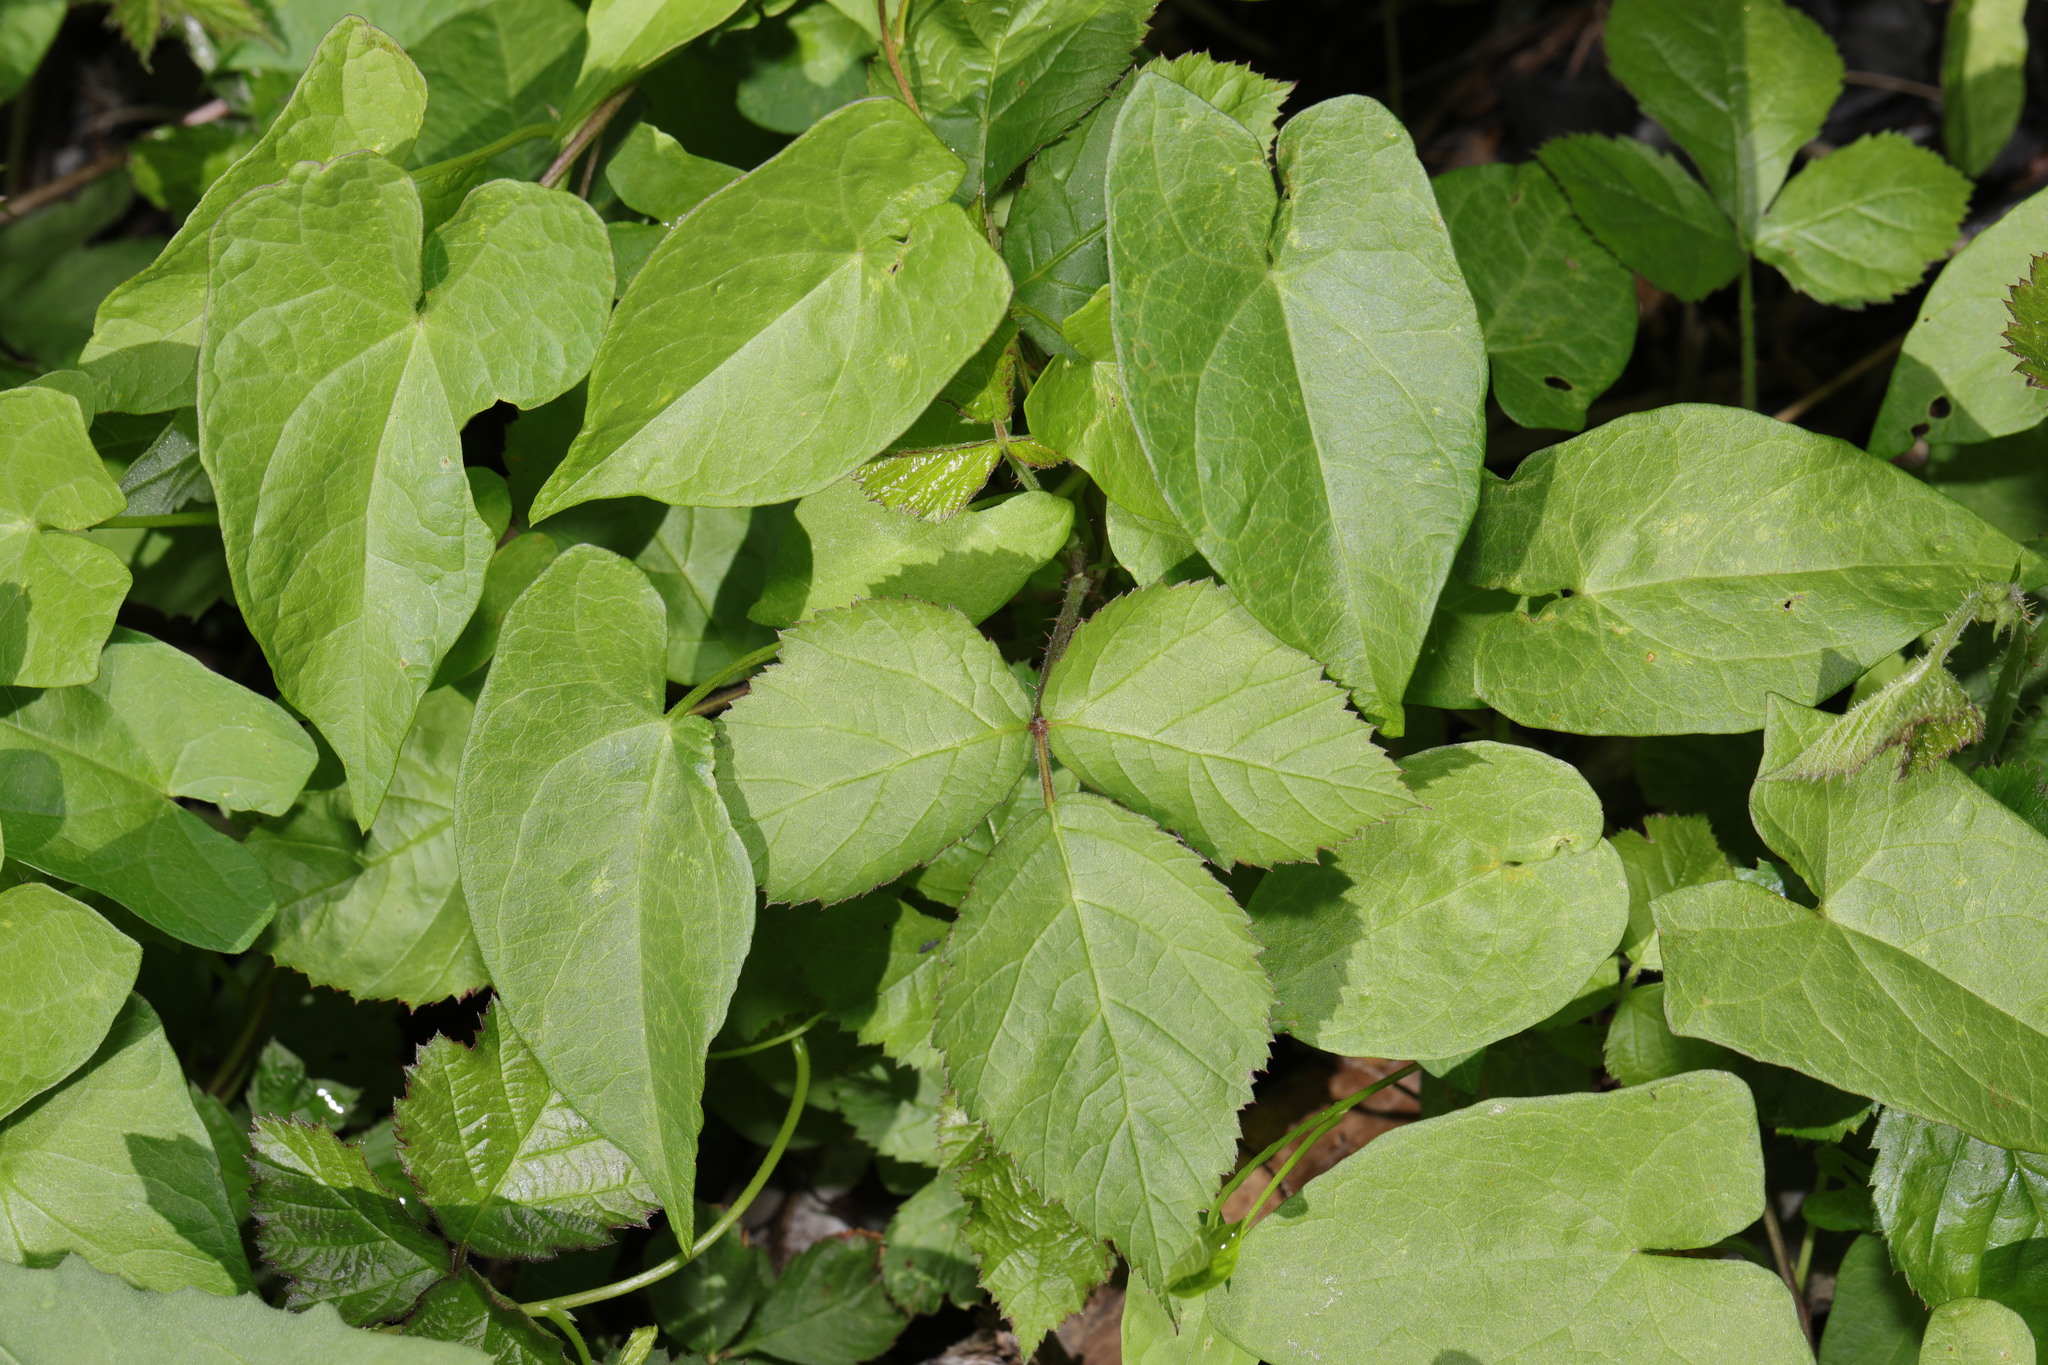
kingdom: Plantae
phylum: Tracheophyta
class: Magnoliopsida
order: Solanales
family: Convolvulaceae
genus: Calystegia
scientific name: Calystegia
